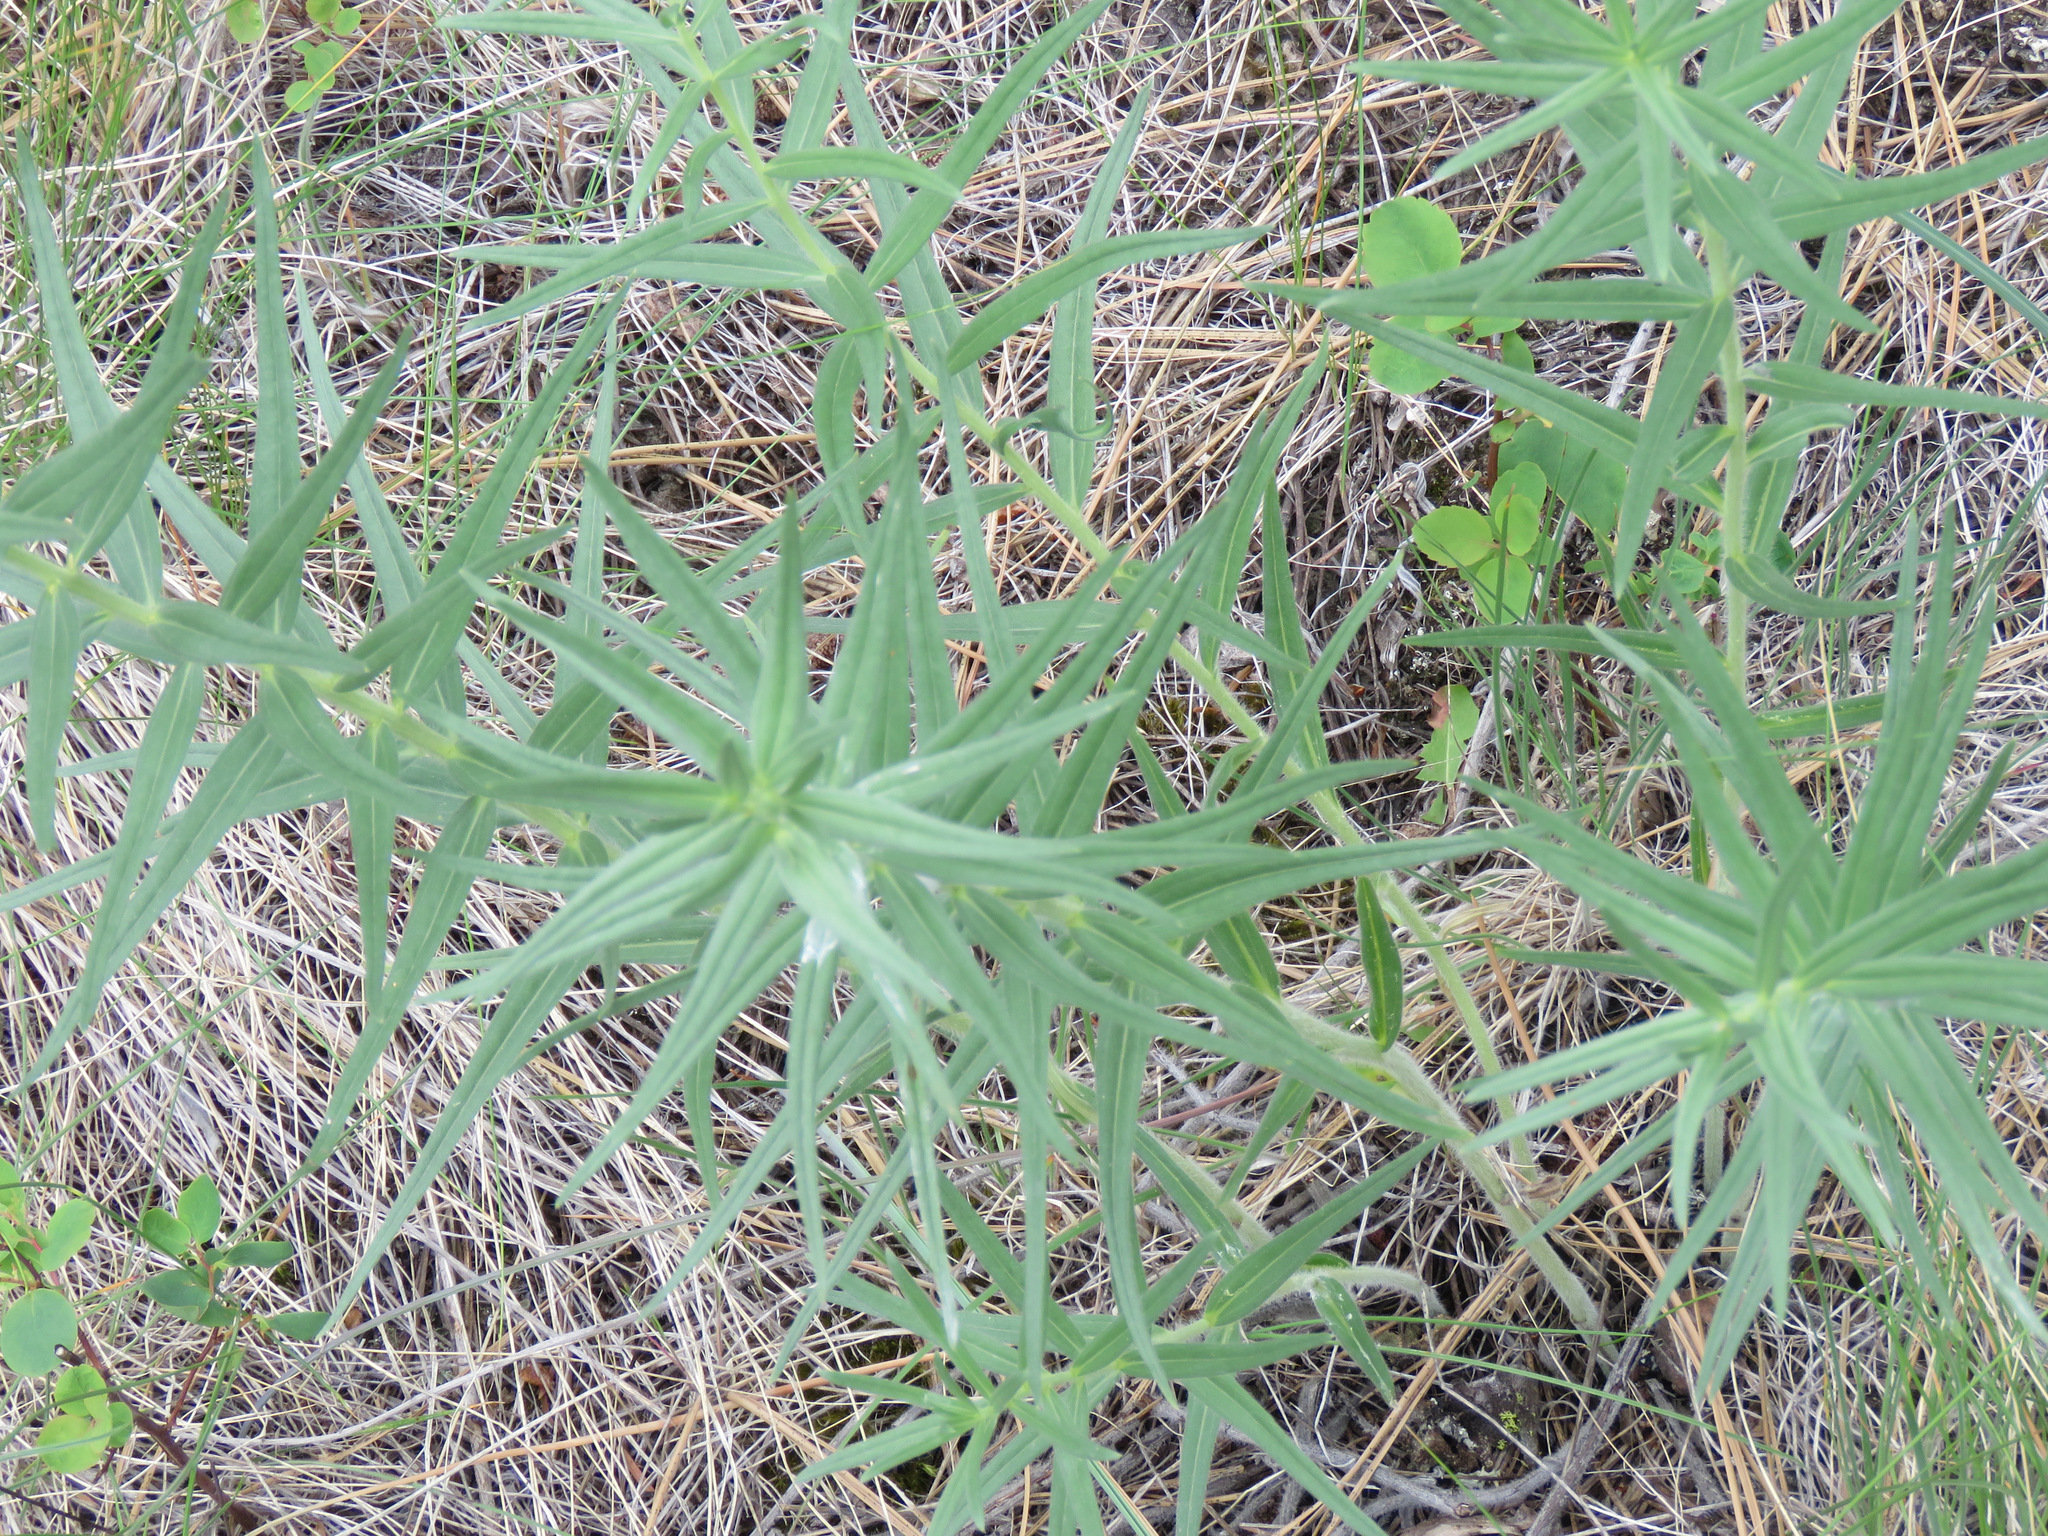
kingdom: Plantae
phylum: Tracheophyta
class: Magnoliopsida
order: Boraginales
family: Boraginaceae
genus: Lithospermum
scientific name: Lithospermum ruderale
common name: Western gromwell
